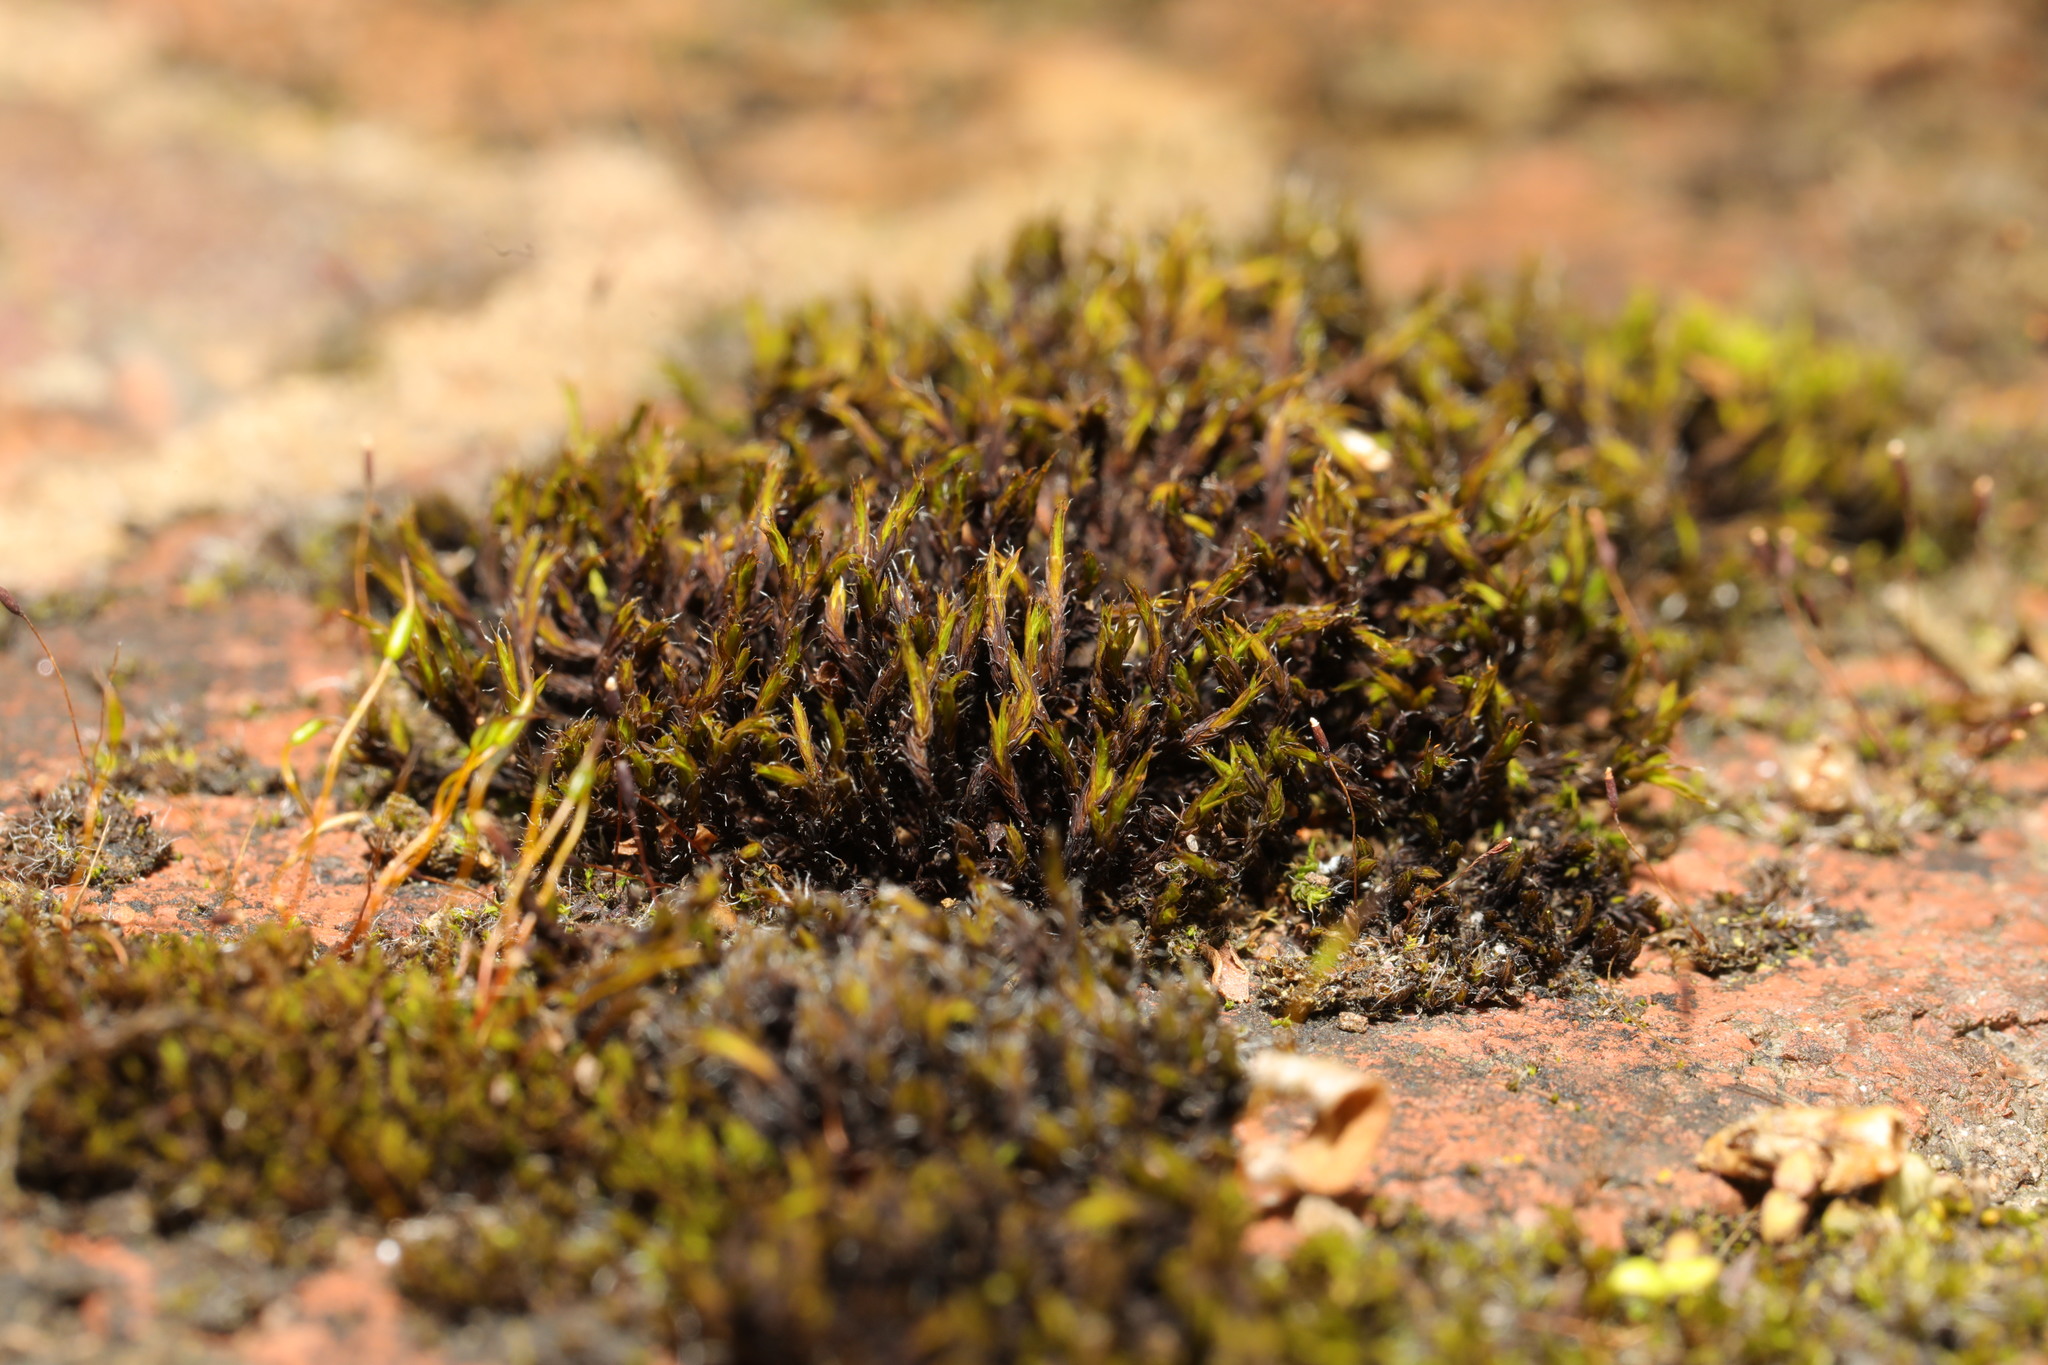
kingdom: Plantae
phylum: Bryophyta
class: Bryopsida
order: Orthotrichales
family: Orthotrichaceae
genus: Orthotrichum
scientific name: Orthotrichum anomalum
